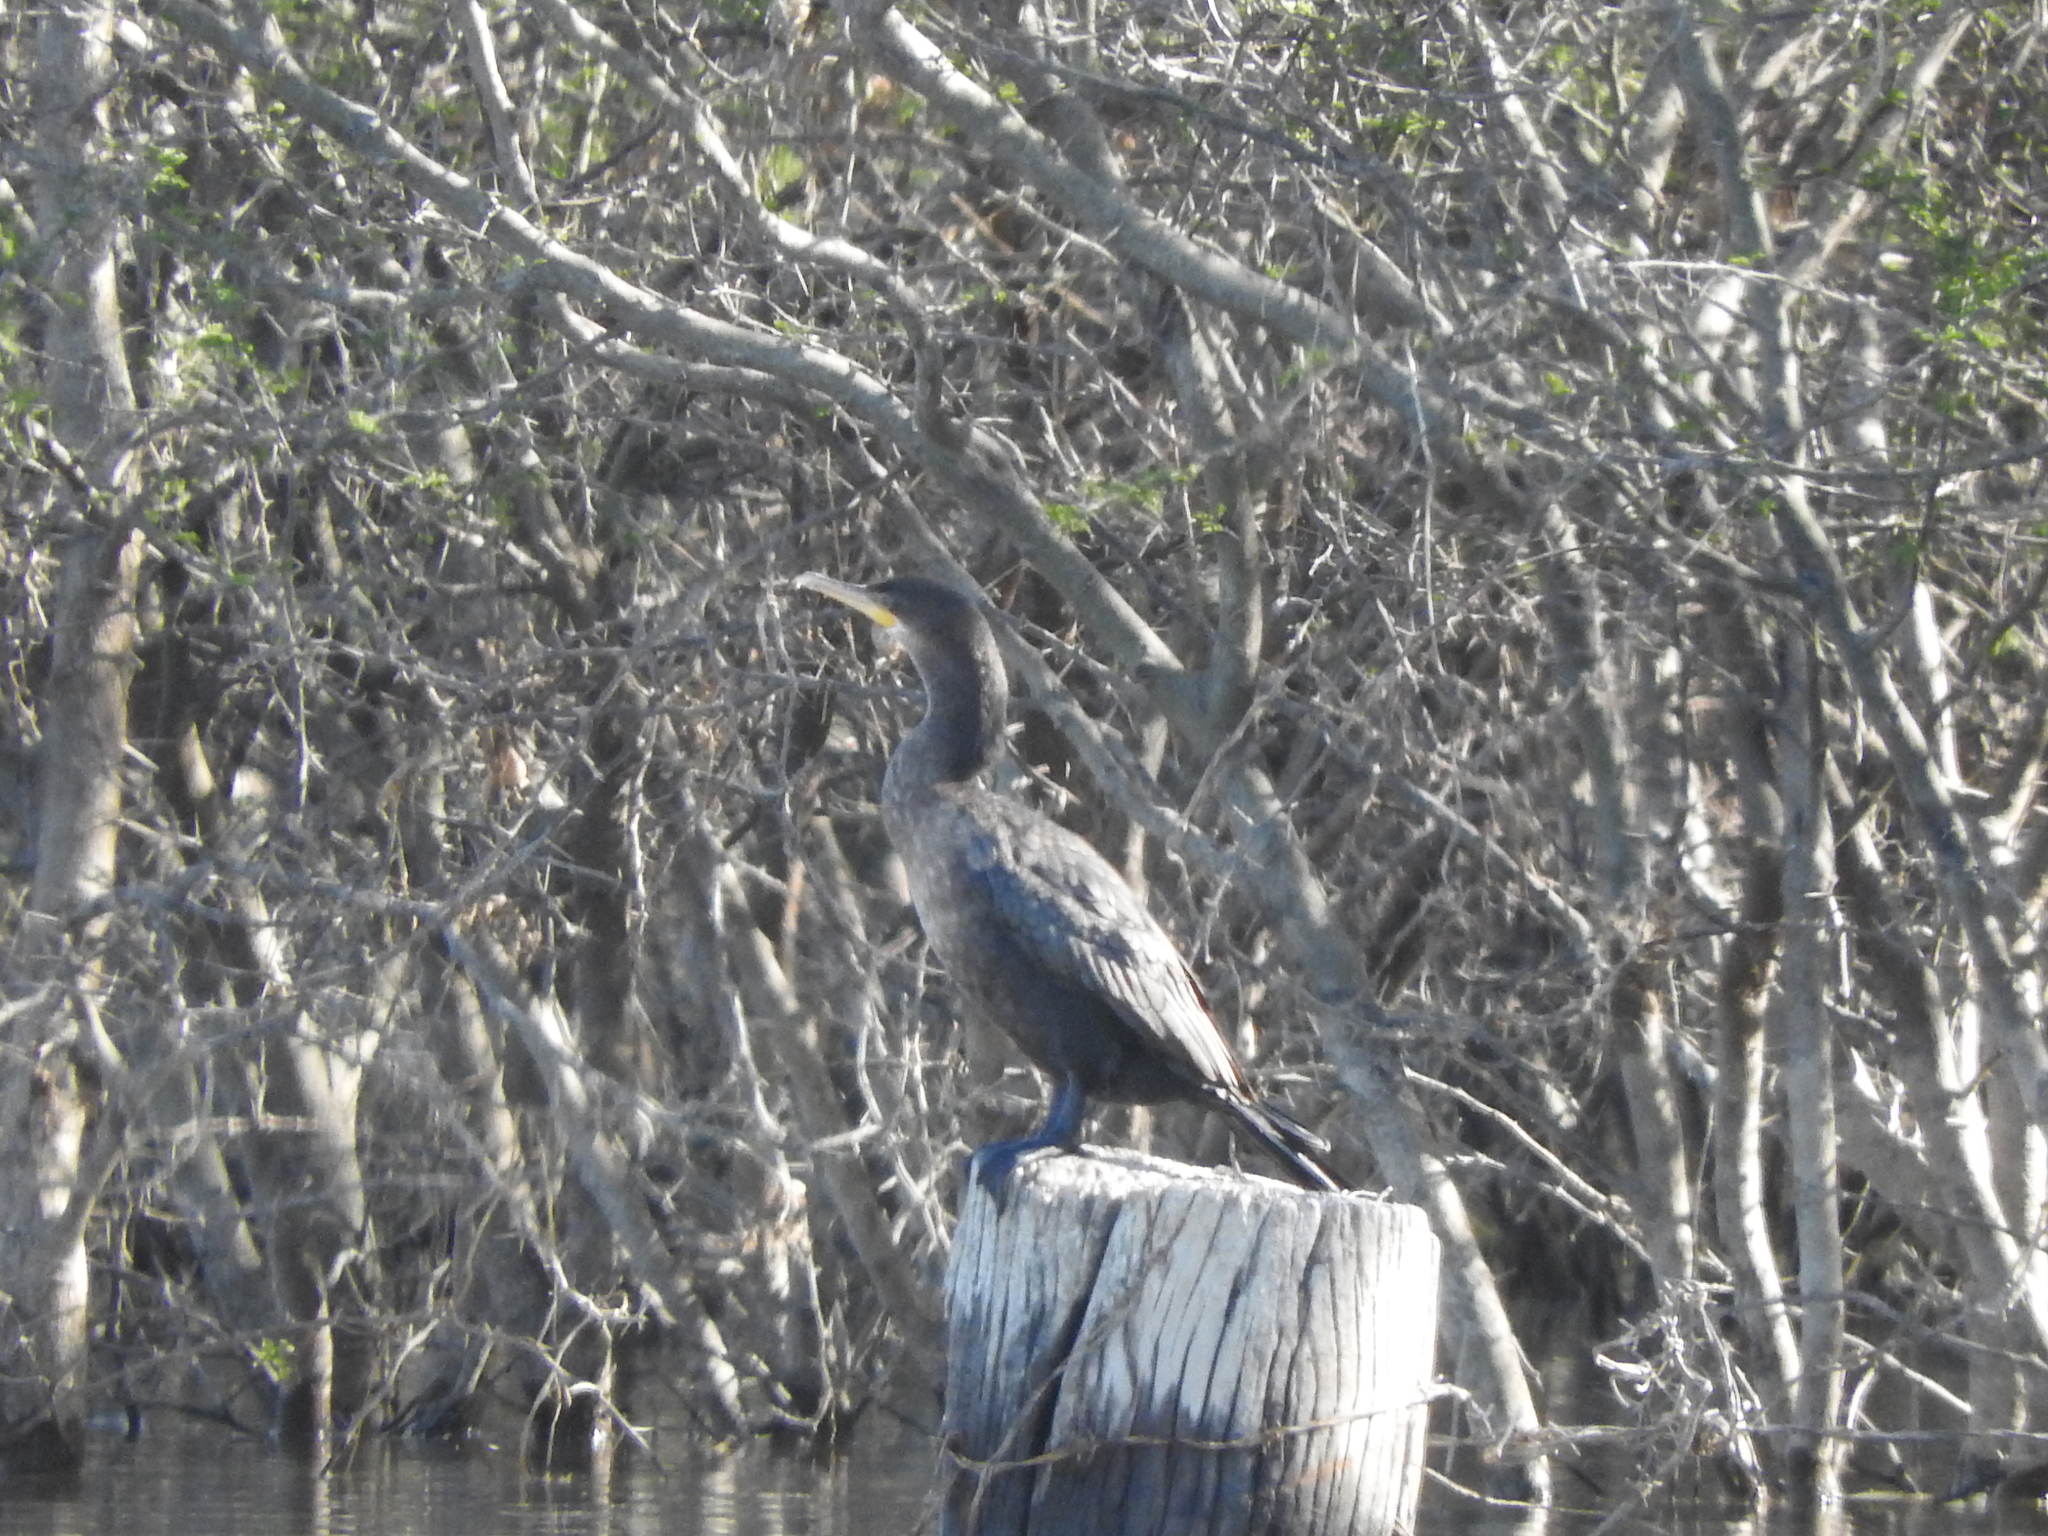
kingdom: Animalia
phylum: Chordata
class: Aves
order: Suliformes
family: Phalacrocoracidae
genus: Phalacrocorax
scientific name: Phalacrocorax brasilianus
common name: Neotropic cormorant
